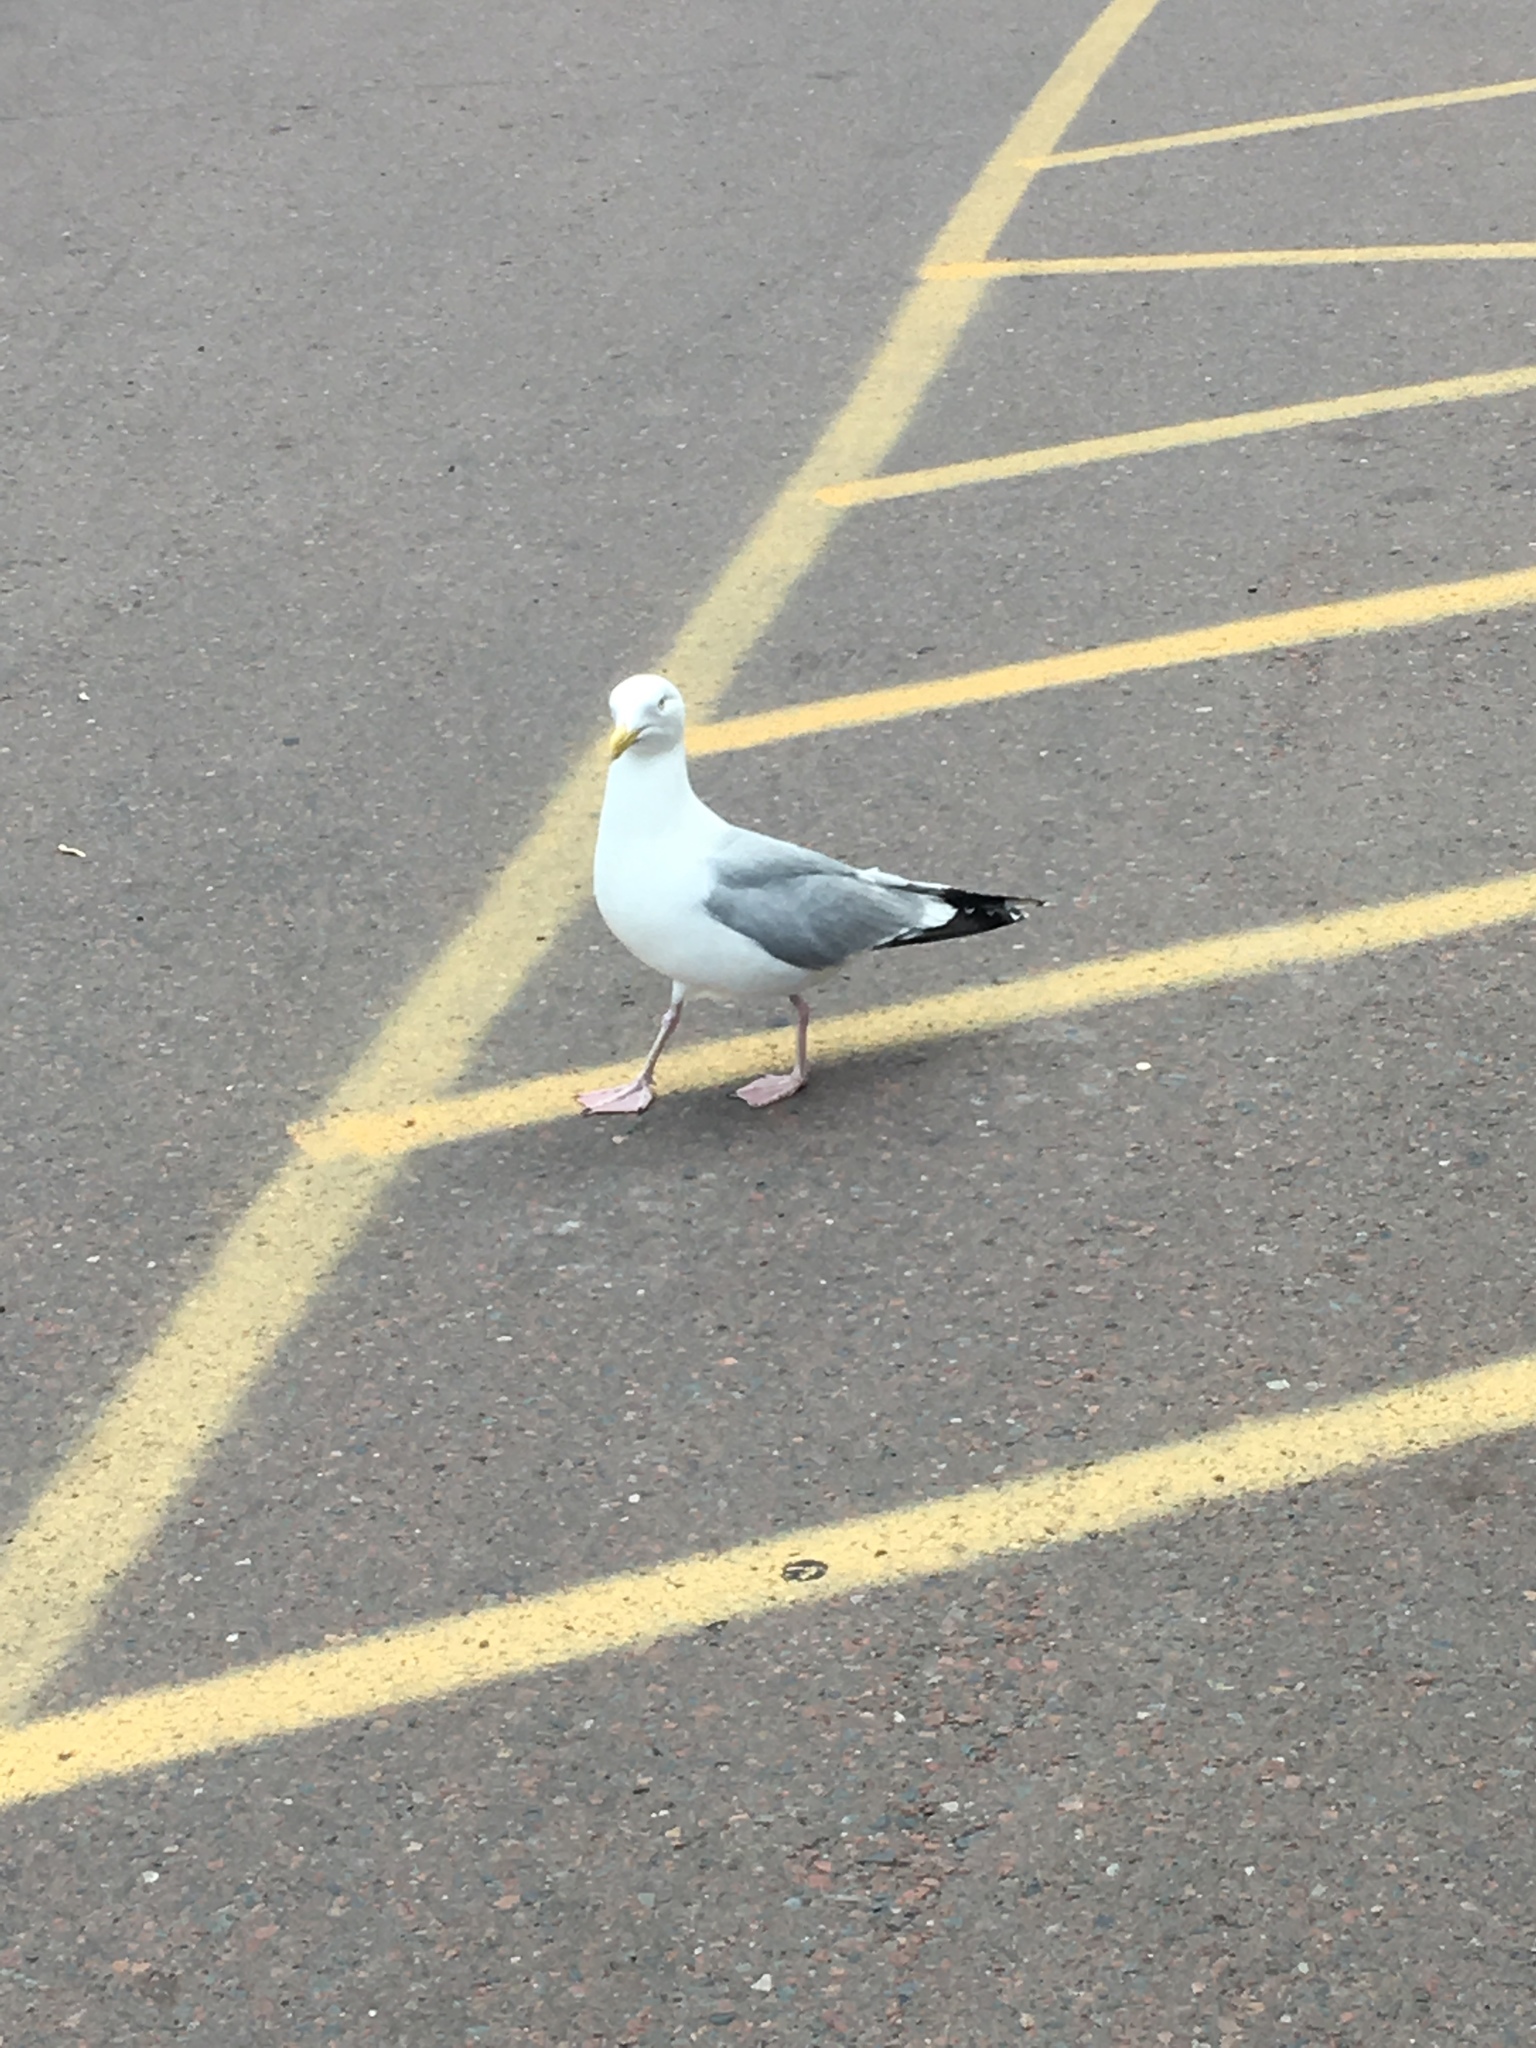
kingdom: Animalia
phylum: Chordata
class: Aves
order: Charadriiformes
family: Laridae
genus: Larus
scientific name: Larus argentatus
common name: Herring gull
